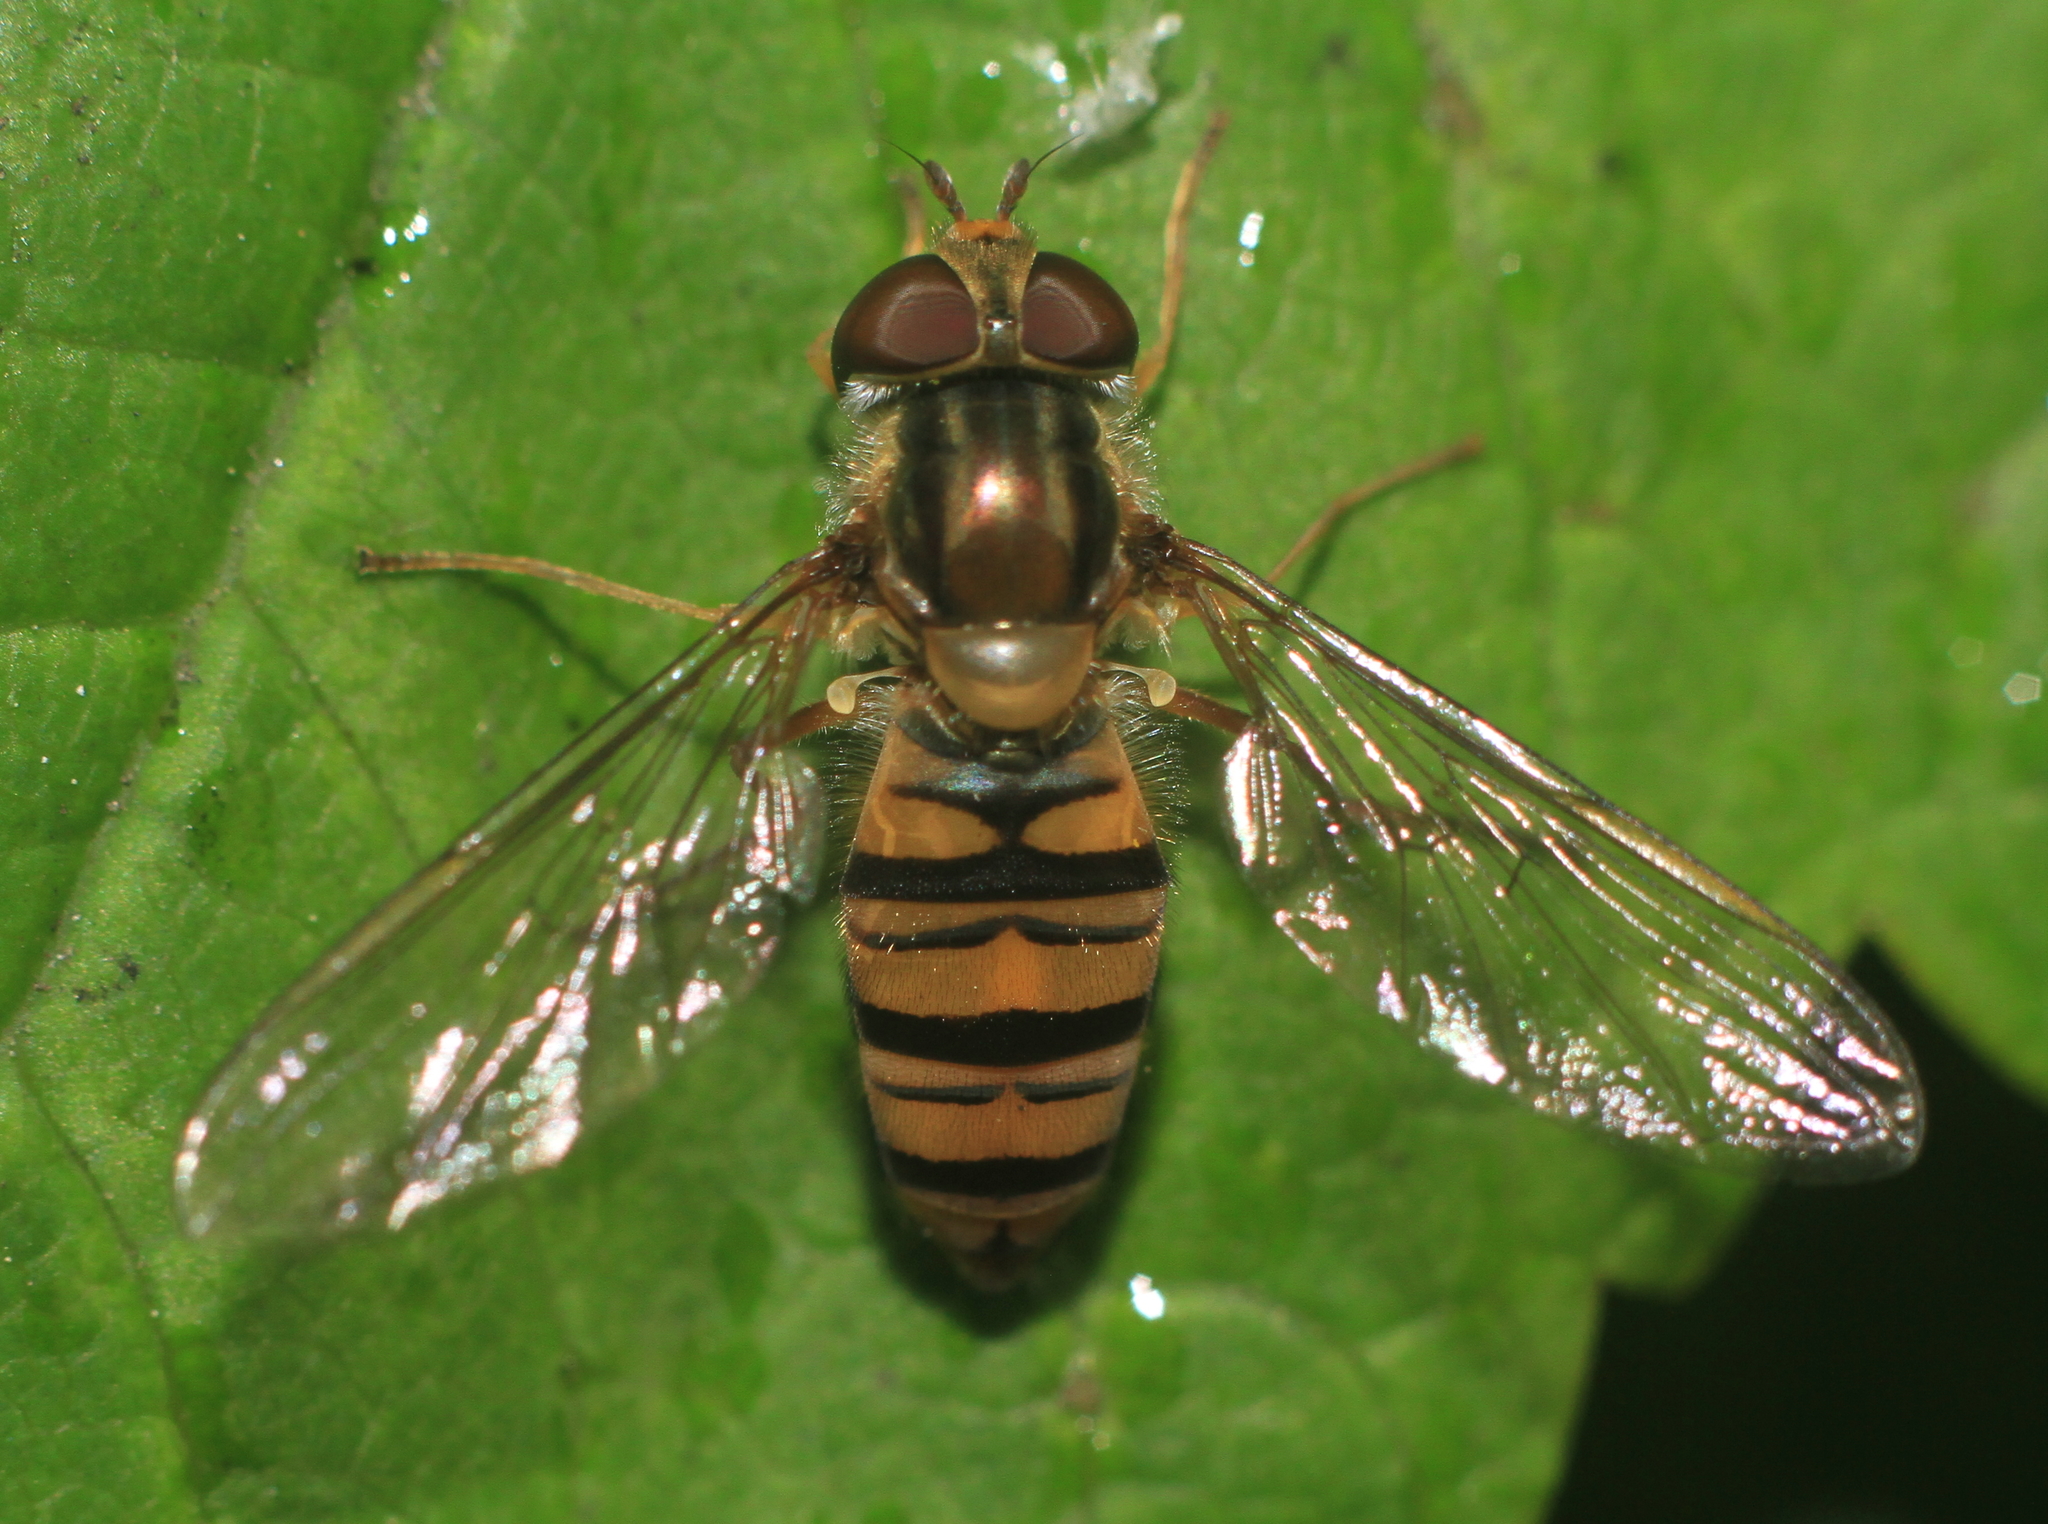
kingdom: Animalia
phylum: Arthropoda
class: Insecta
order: Diptera
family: Syrphidae
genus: Episyrphus
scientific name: Episyrphus balteatus
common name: Marmalade hoverfly
